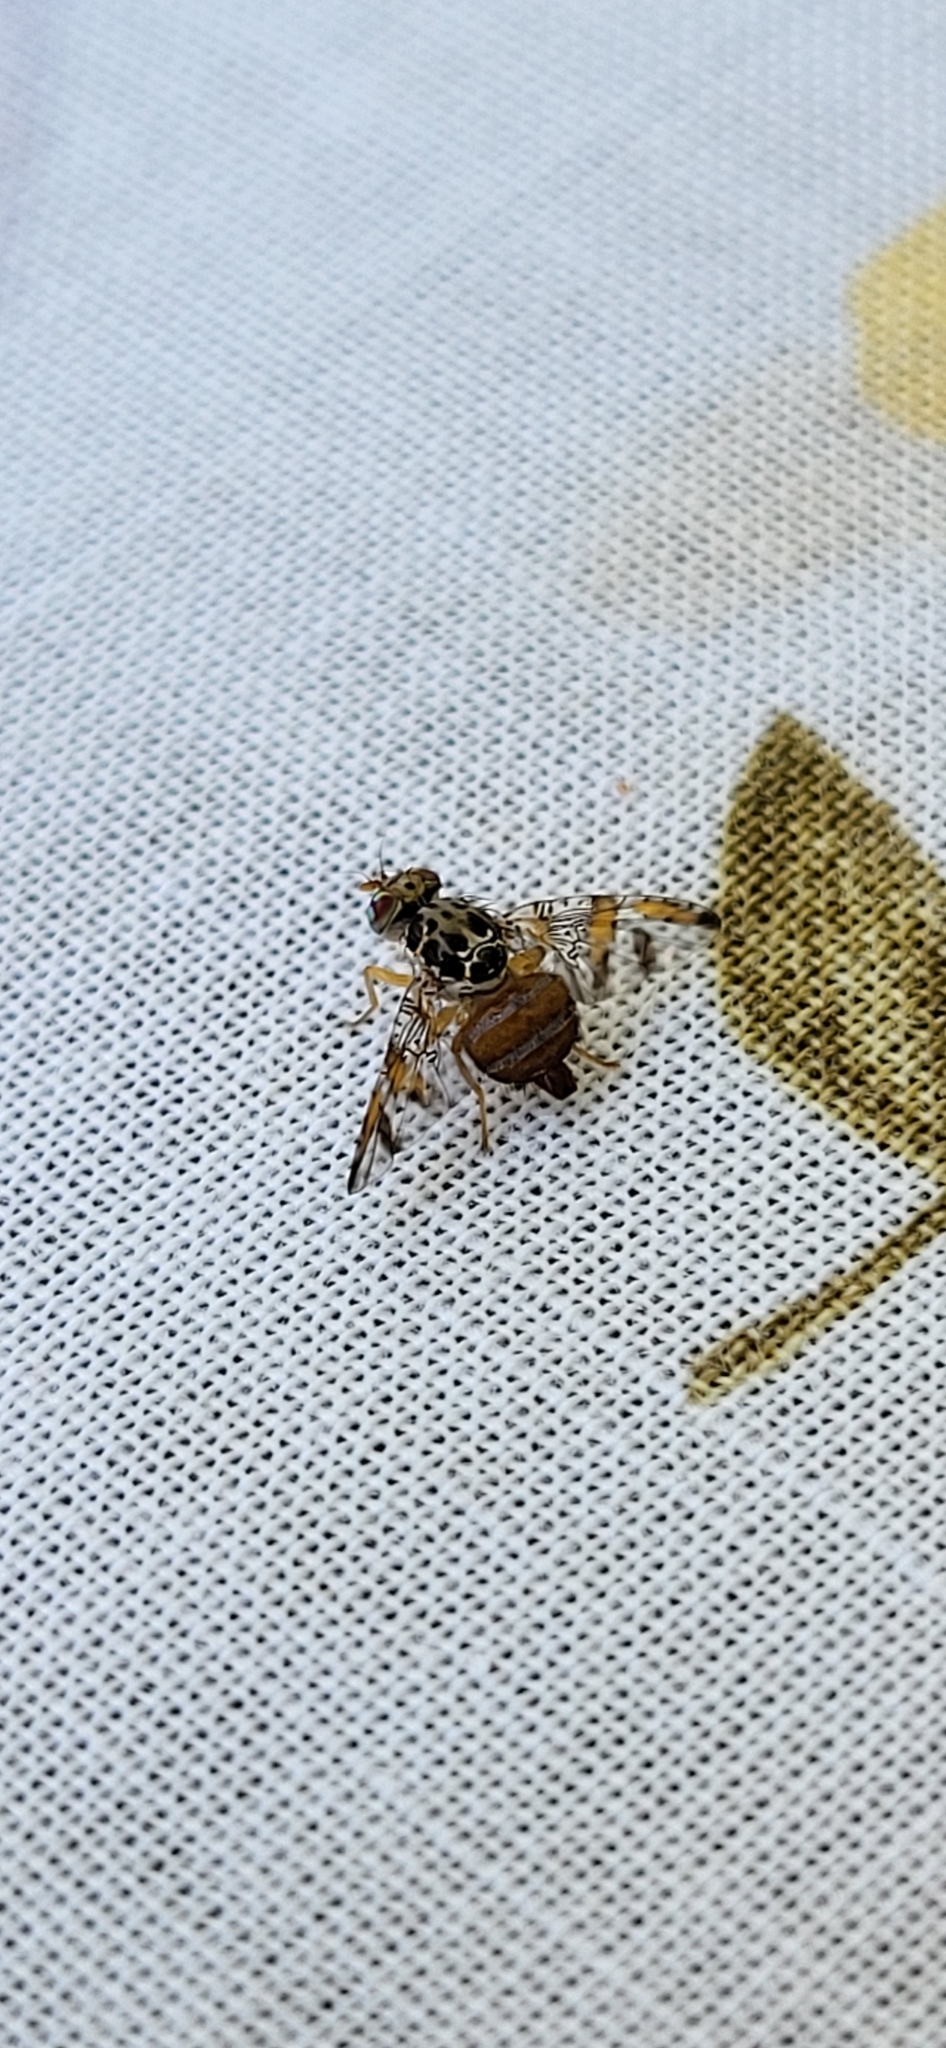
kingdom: Animalia
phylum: Arthropoda
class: Insecta
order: Diptera
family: Tephritidae
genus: Ceratitis
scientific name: Ceratitis capitata
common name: Mediterranean fruit fly
